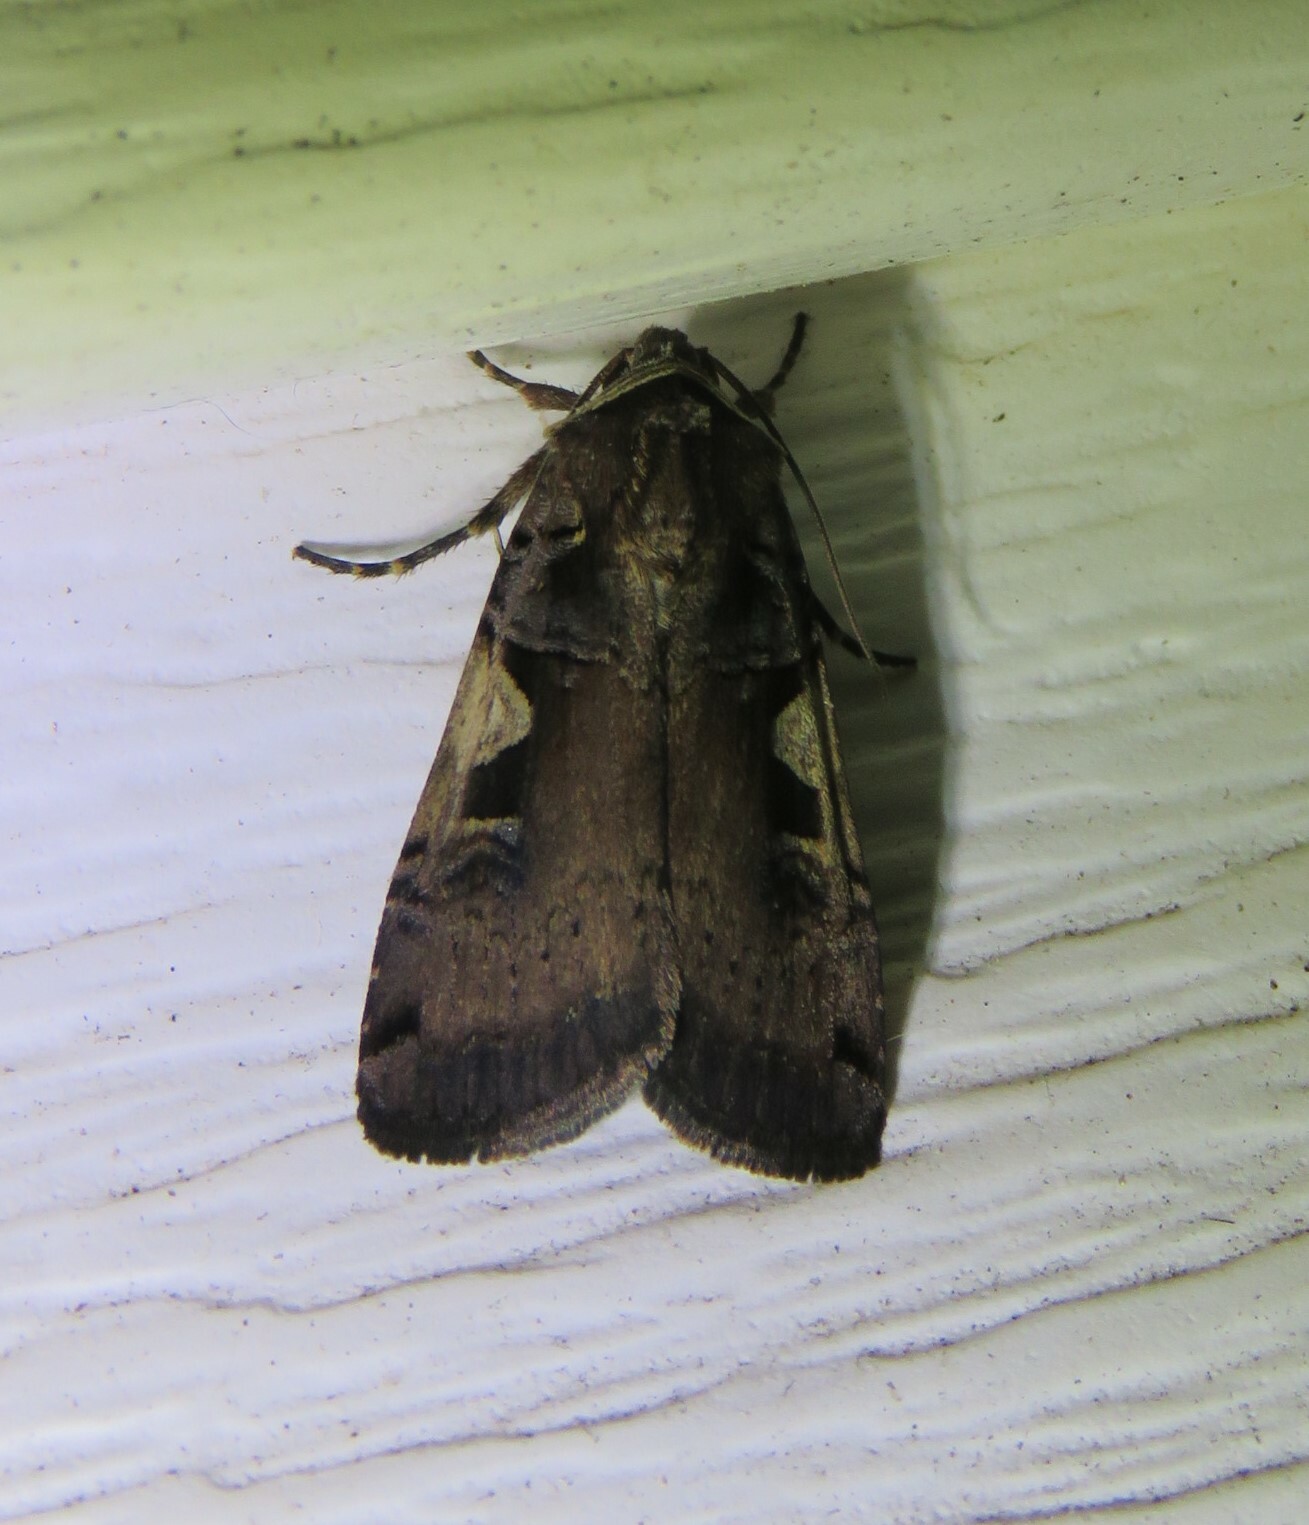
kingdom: Animalia
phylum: Arthropoda
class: Insecta
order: Lepidoptera
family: Noctuidae
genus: Xestia
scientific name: Xestia dolosa
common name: Cutworm moth
